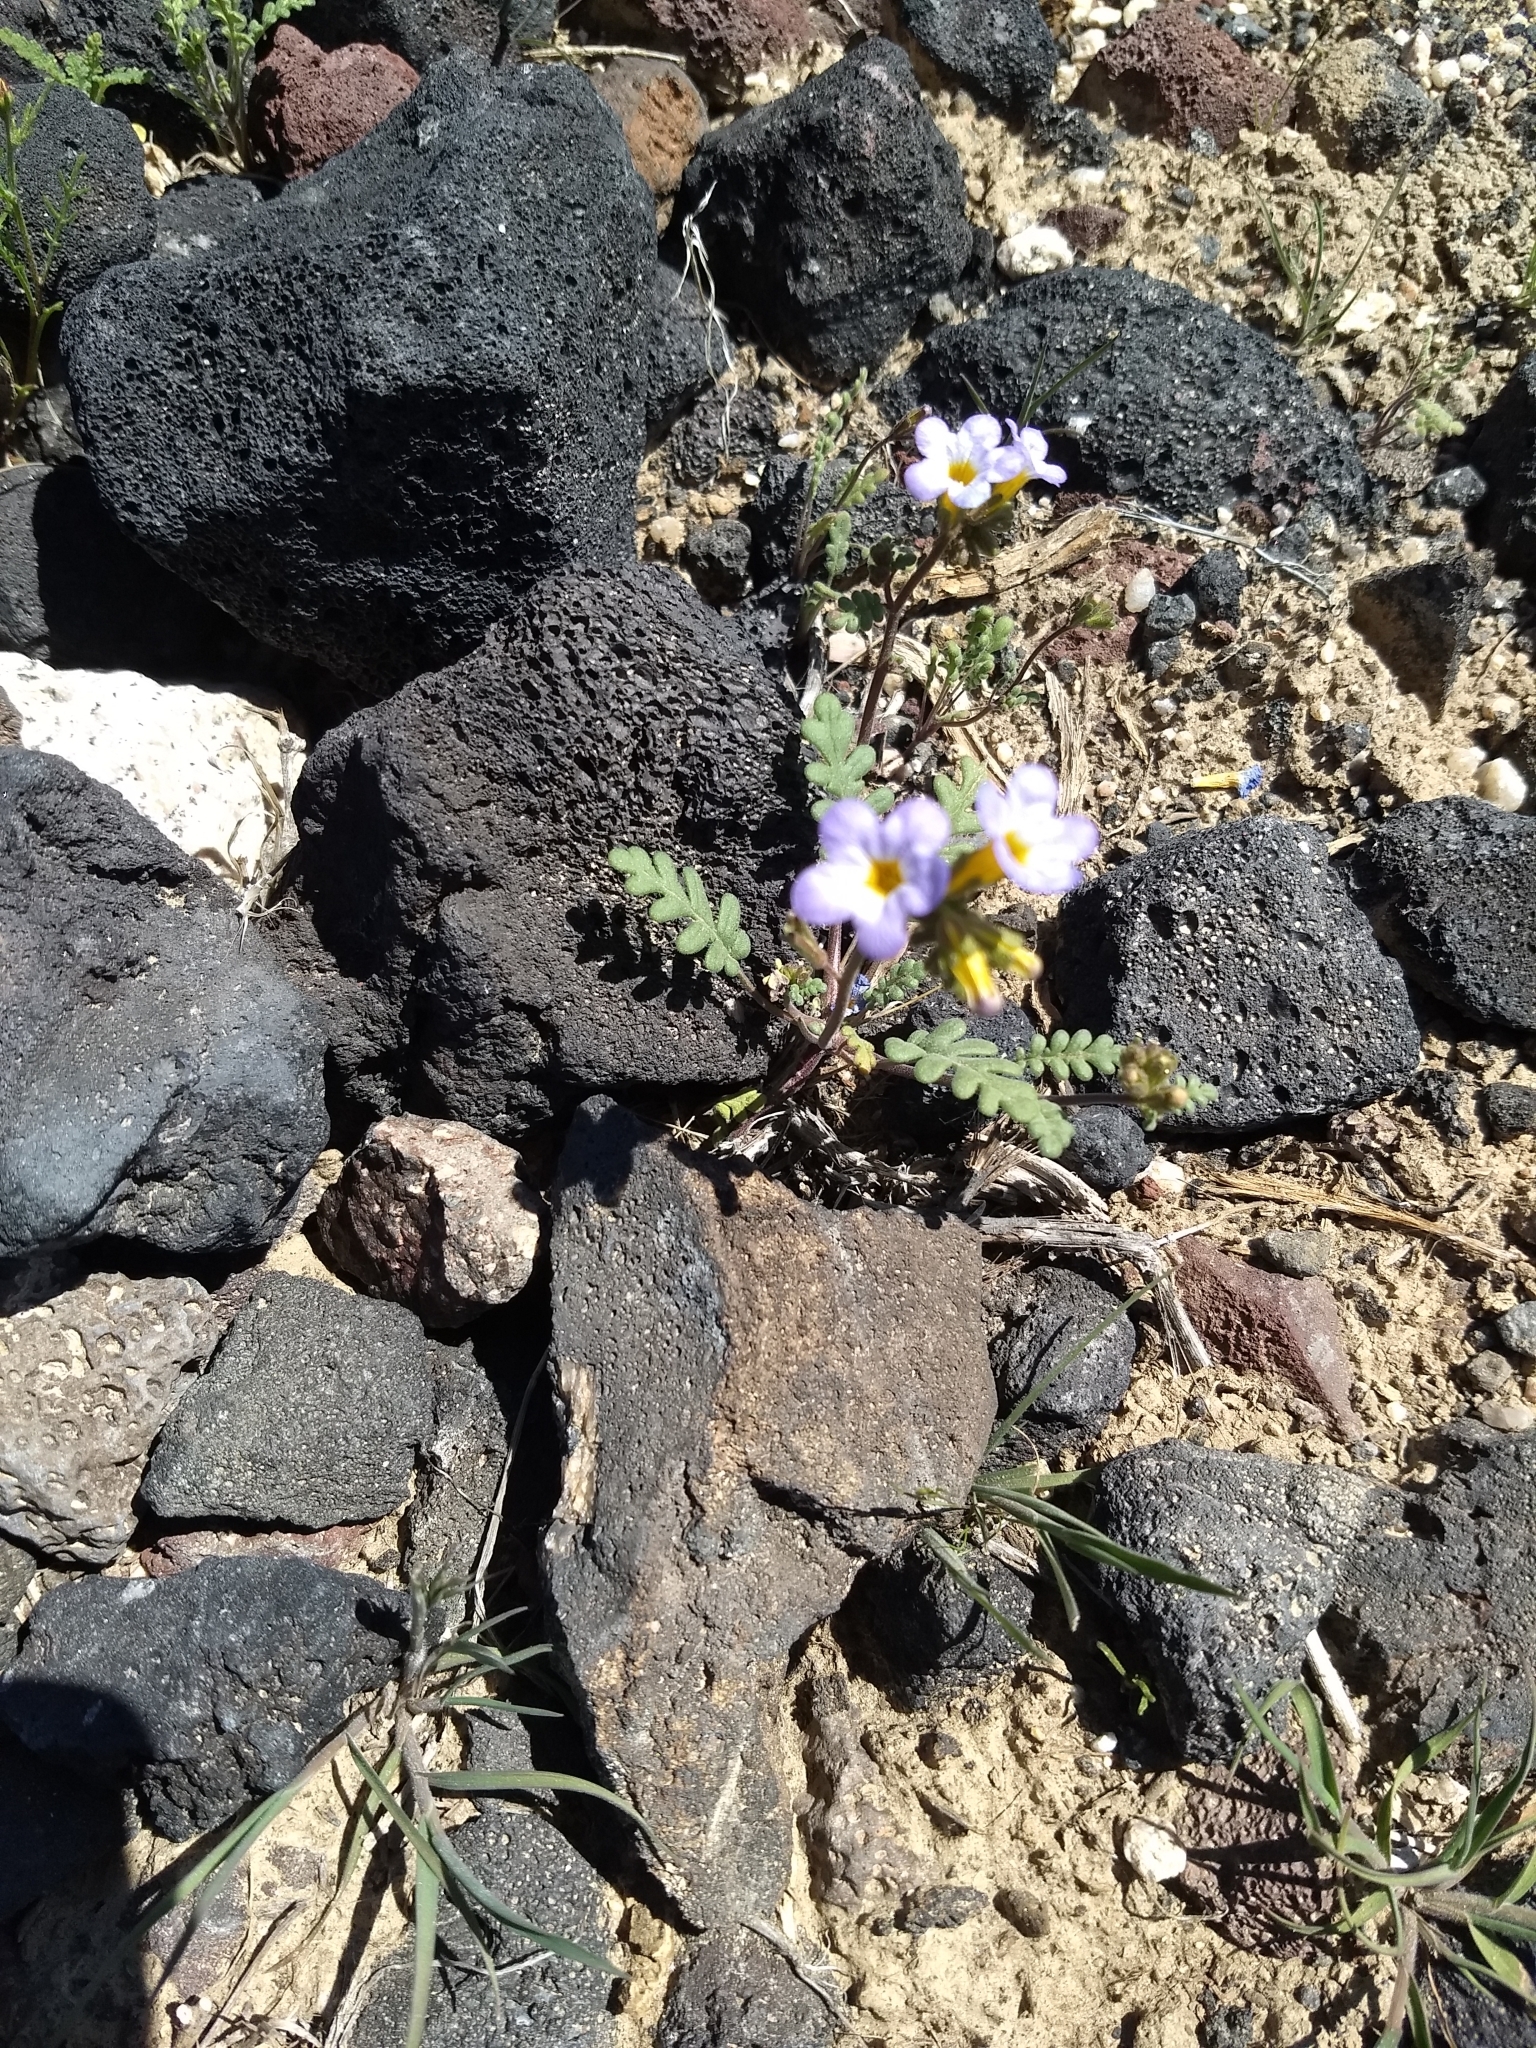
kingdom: Plantae
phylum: Tracheophyta
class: Magnoliopsida
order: Boraginales
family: Hydrophyllaceae
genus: Phacelia
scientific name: Phacelia fremontii
